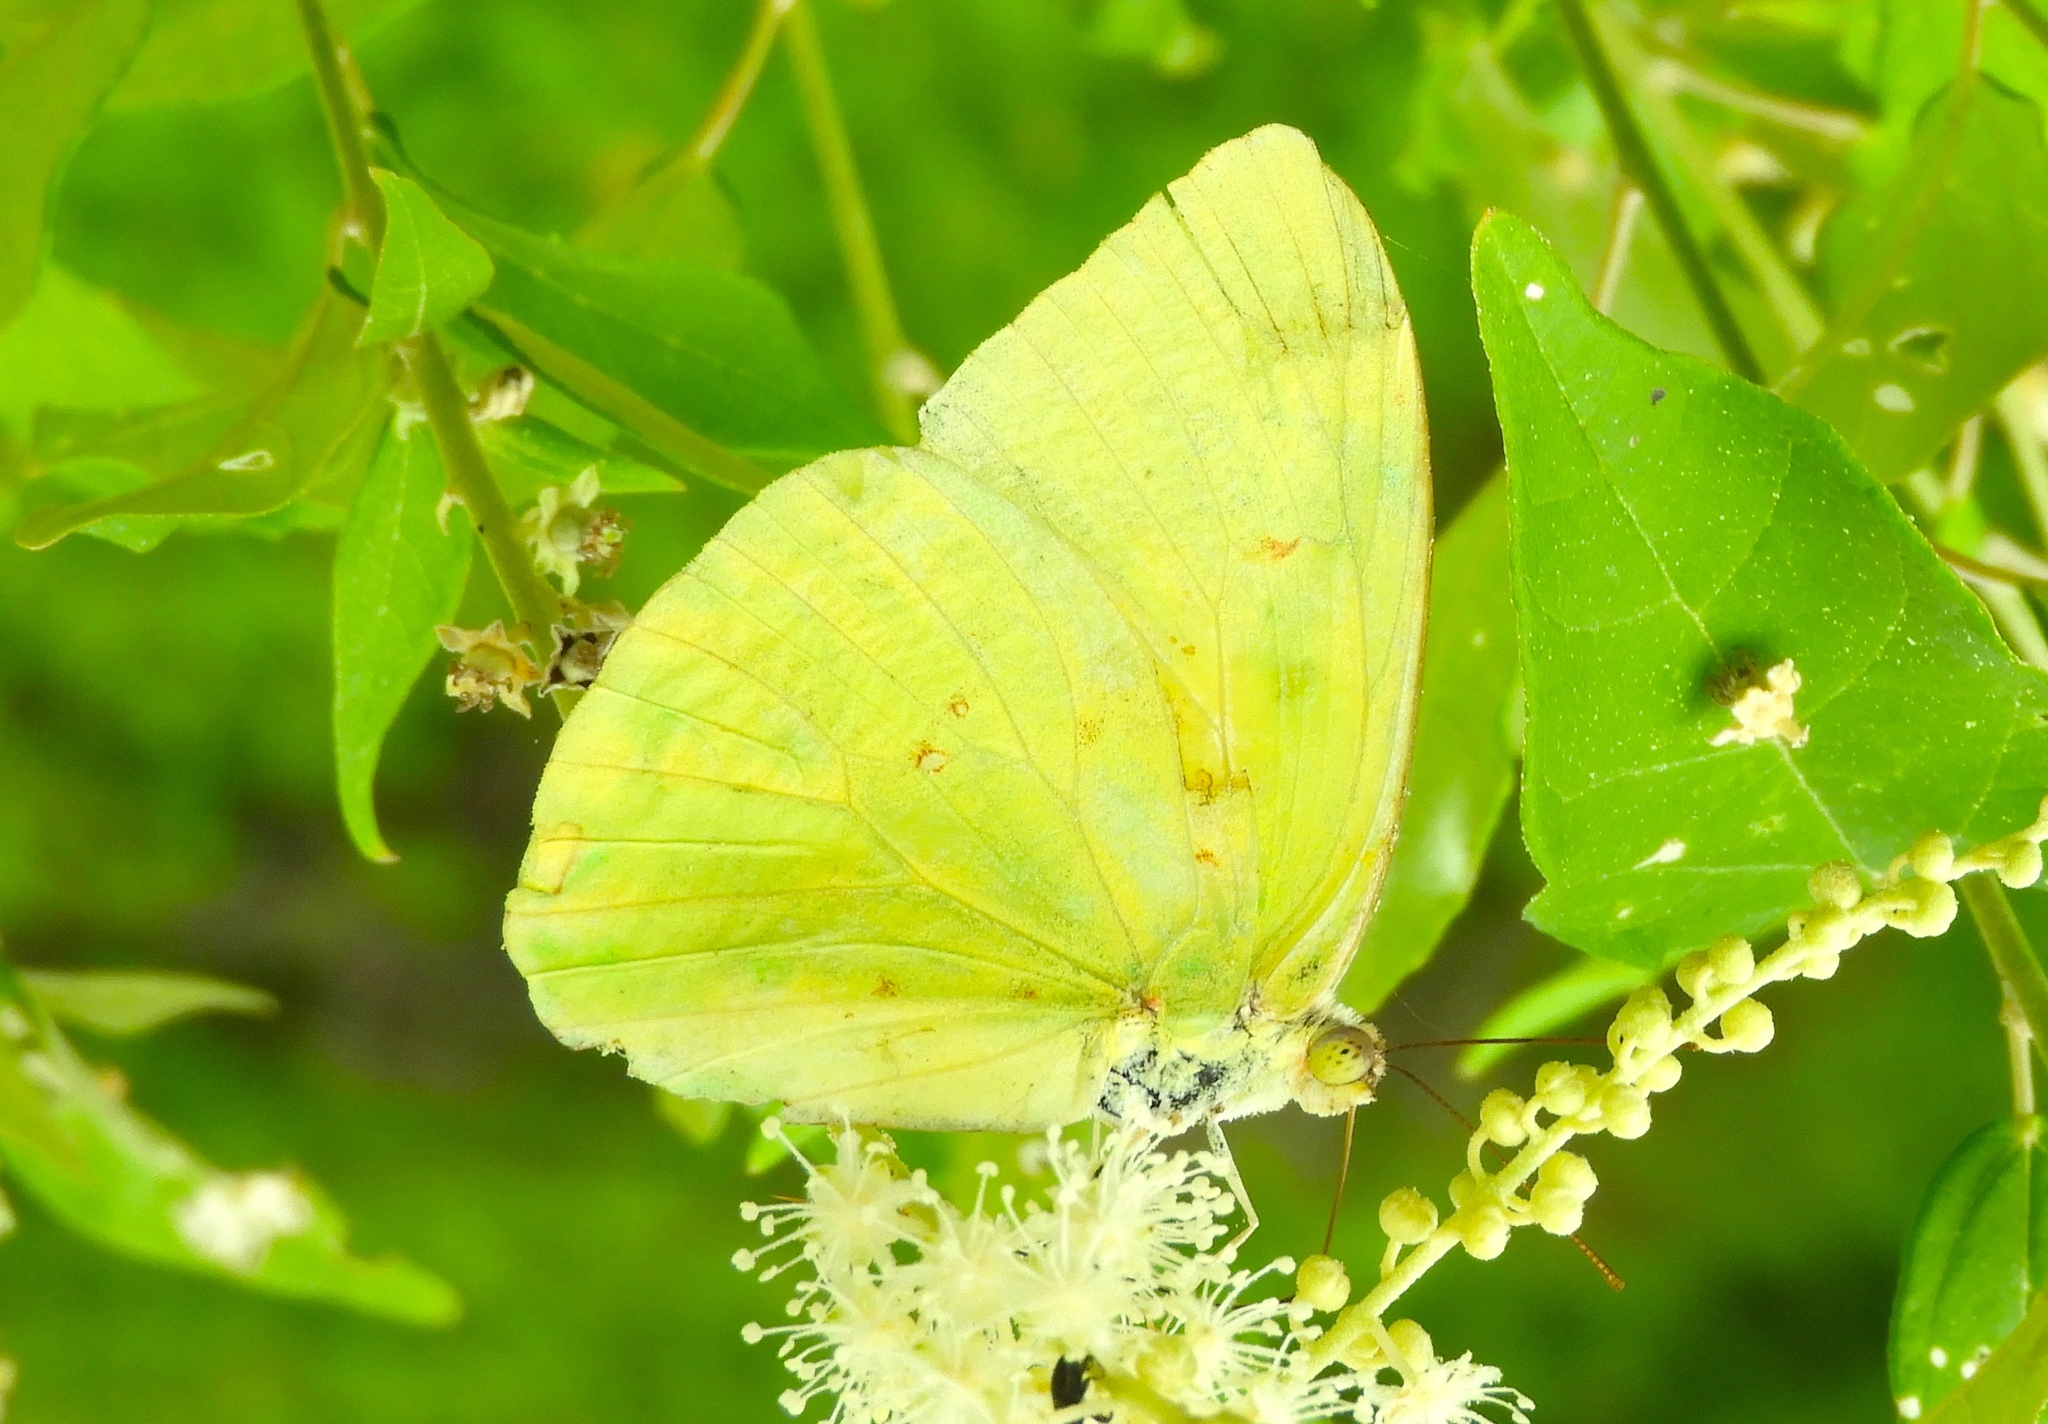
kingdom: Animalia
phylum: Arthropoda
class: Insecta
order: Lepidoptera
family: Pieridae
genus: Phoebis
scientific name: Phoebis marcellina
